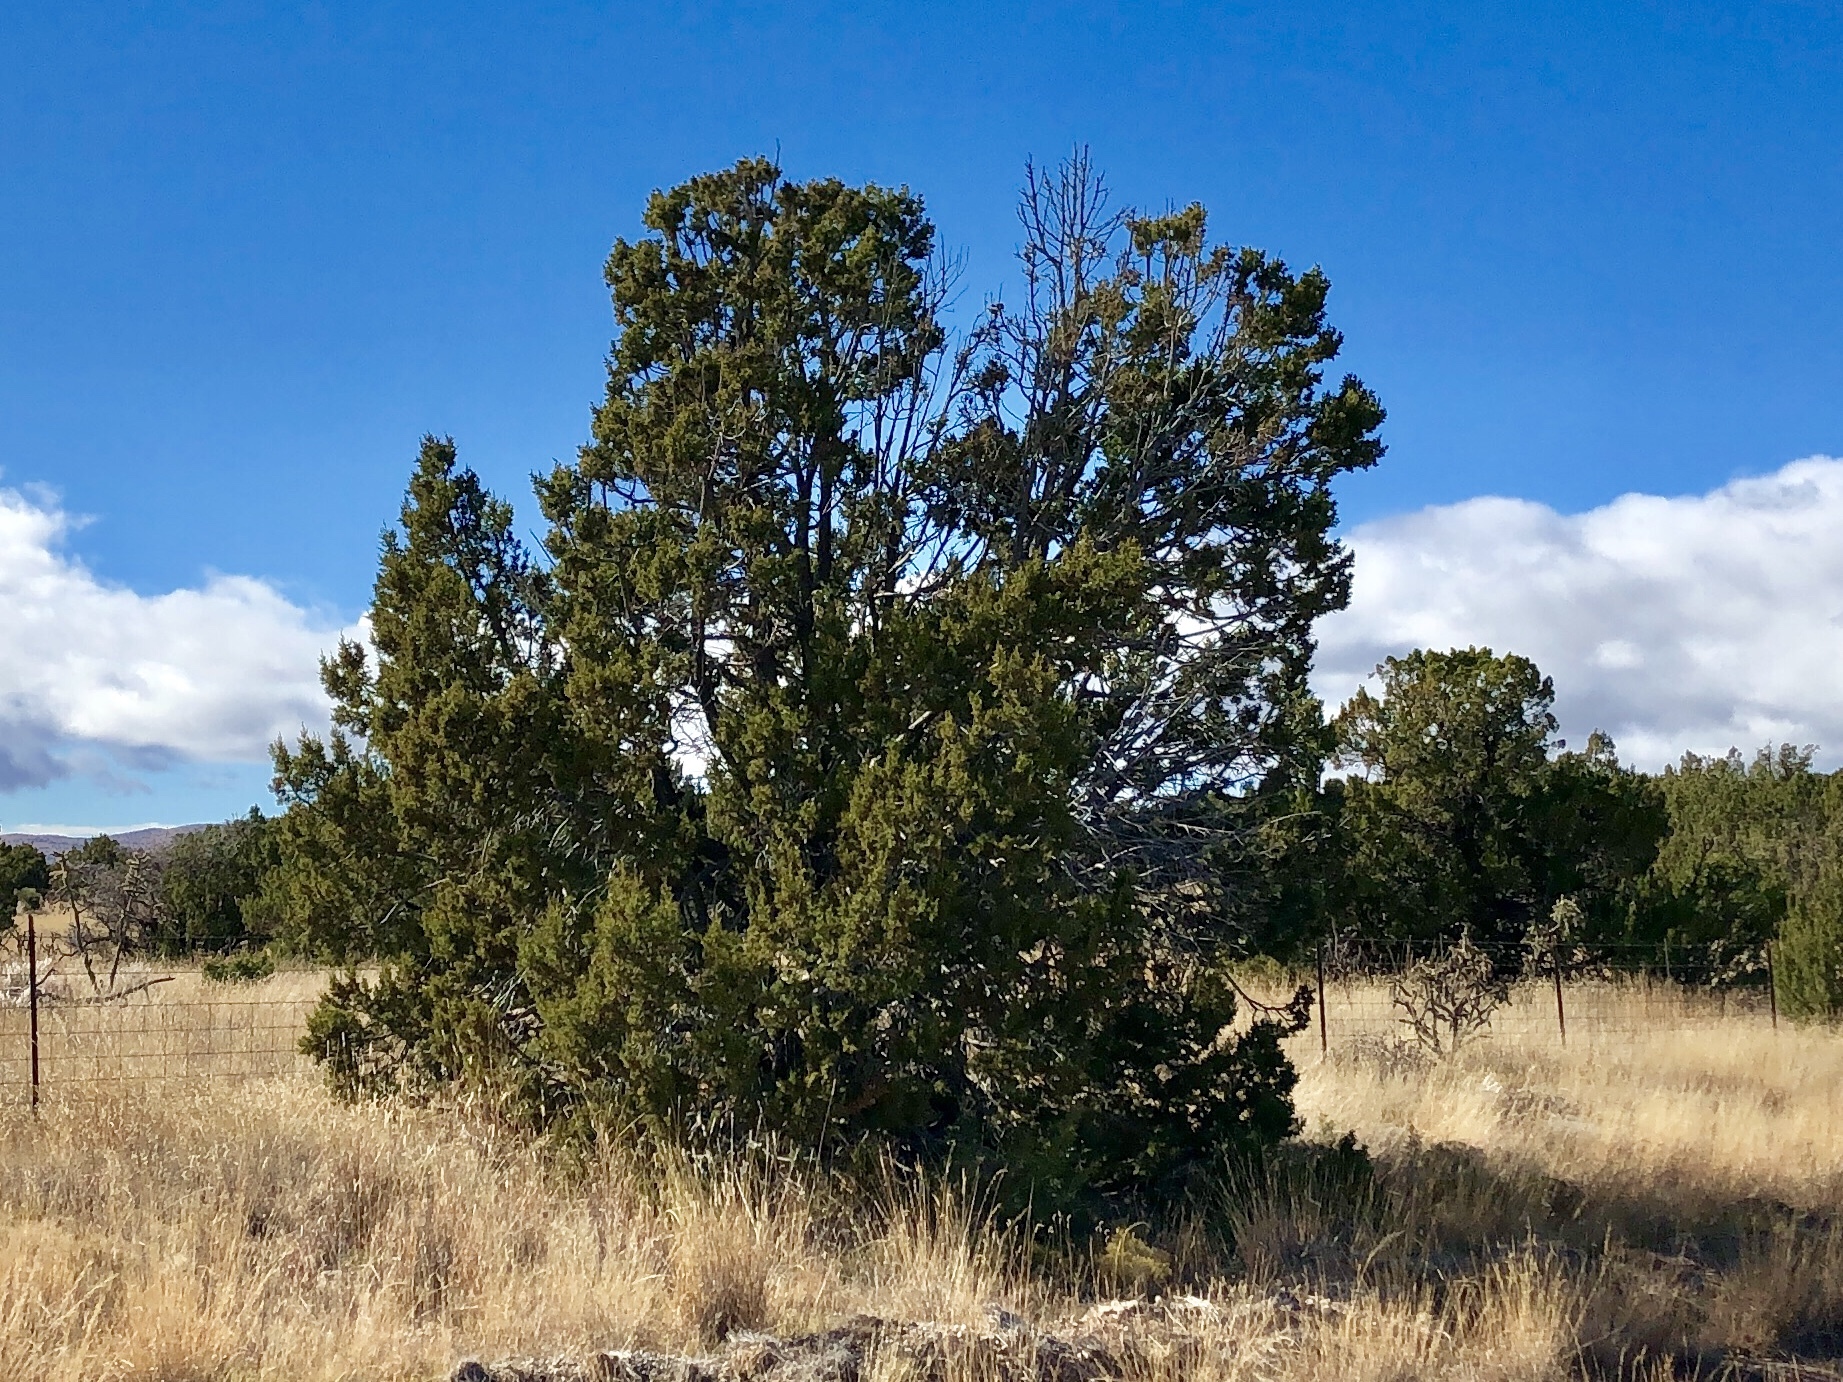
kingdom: Plantae
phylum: Tracheophyta
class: Pinopsida
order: Pinales
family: Cupressaceae
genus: Juniperus
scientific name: Juniperus monosperma
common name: One-seed juniper
